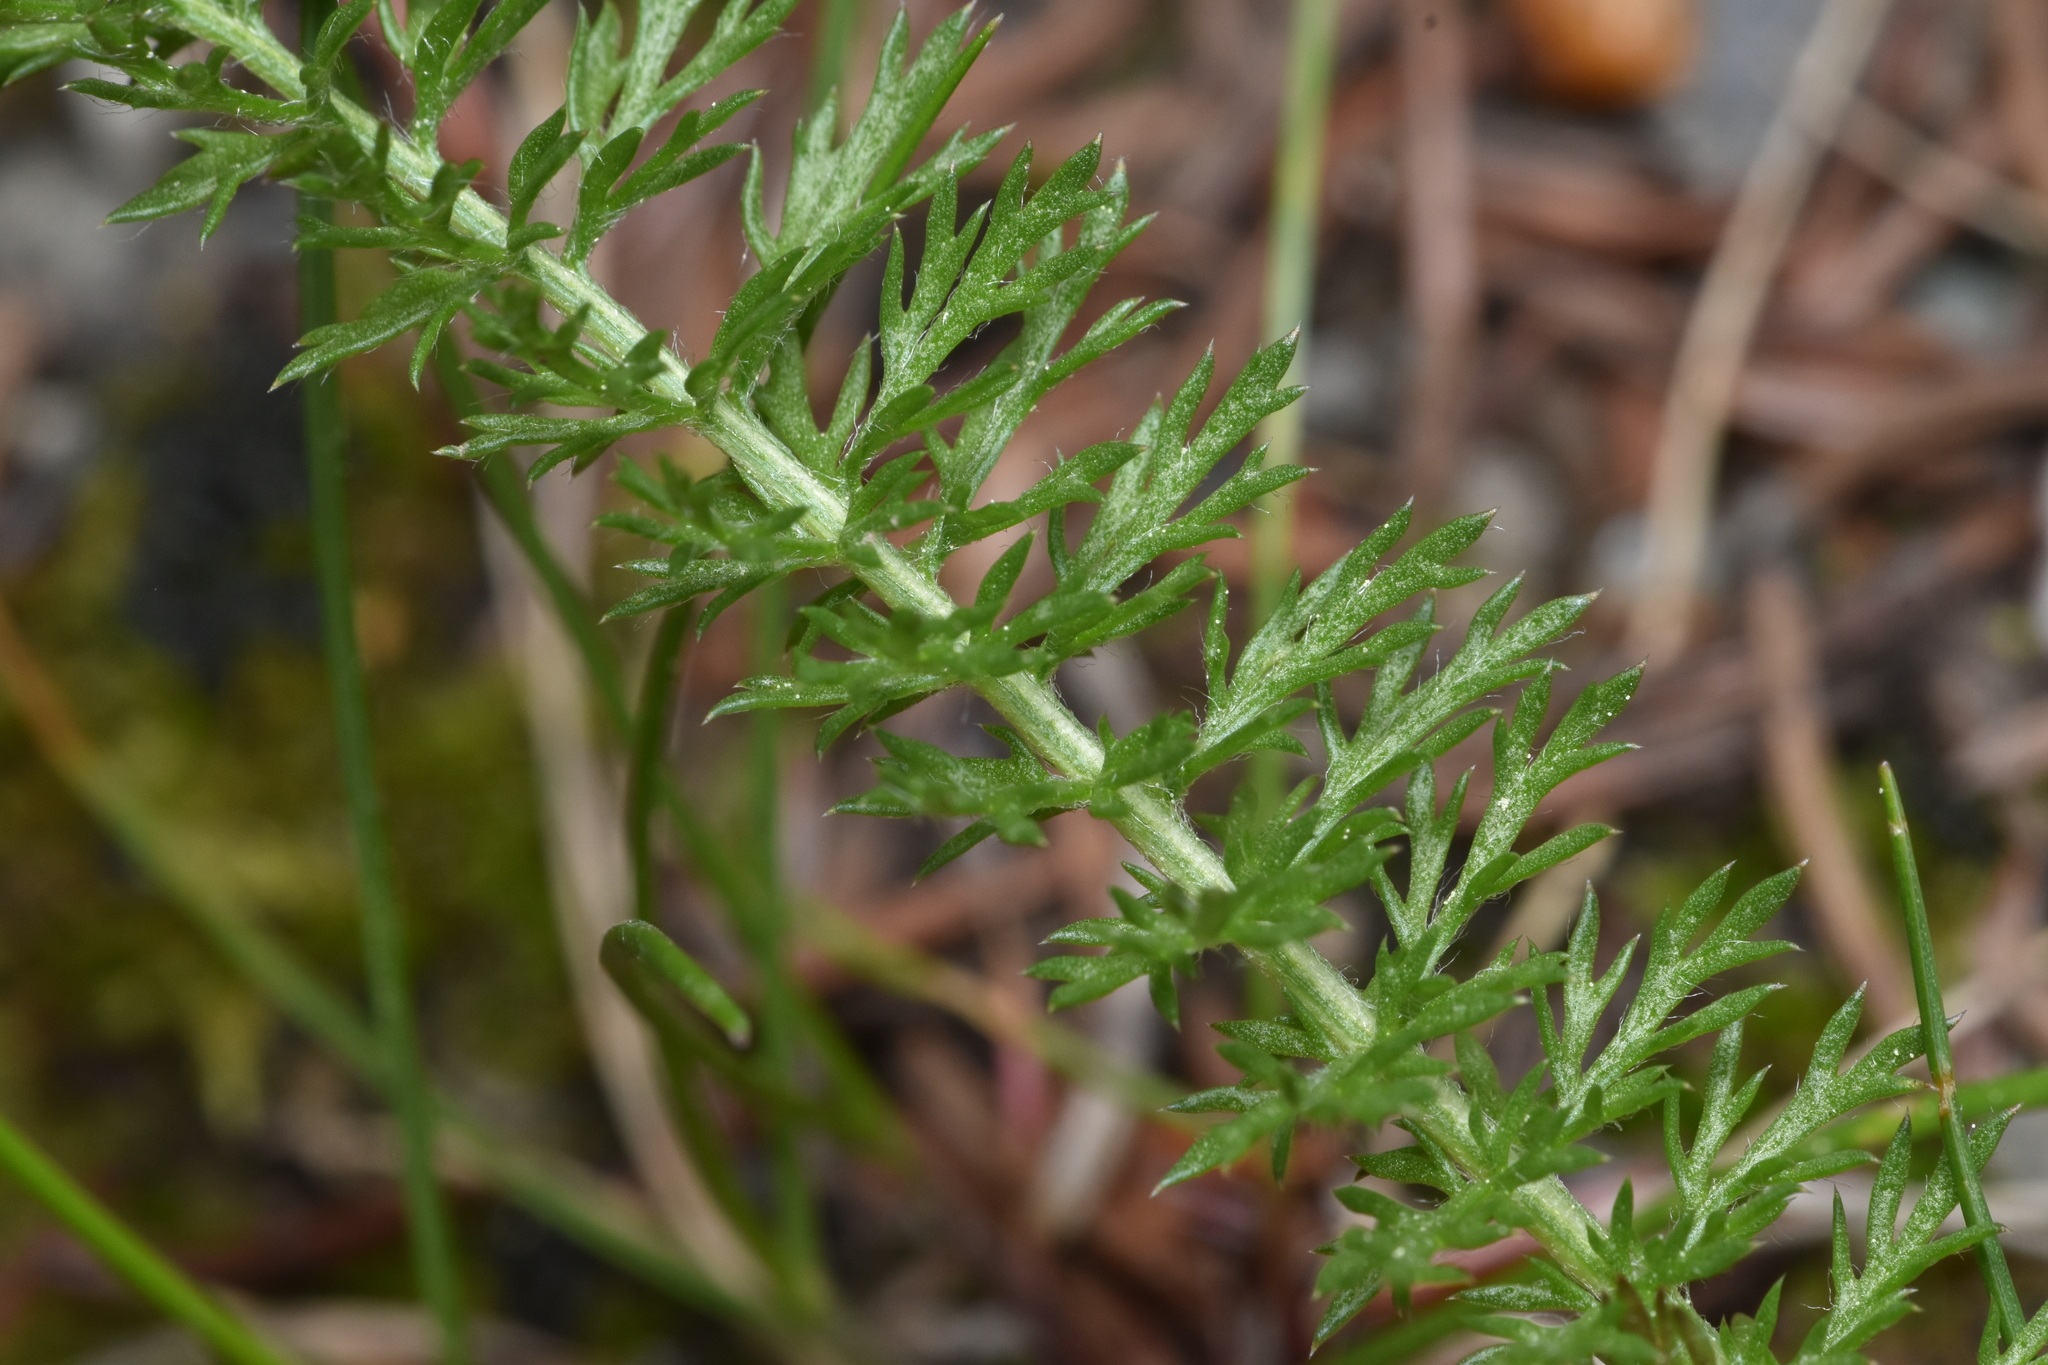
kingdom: Plantae
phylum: Tracheophyta
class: Magnoliopsida
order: Asterales
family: Asteraceae
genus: Achillea
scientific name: Achillea millefolium
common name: Yarrow
